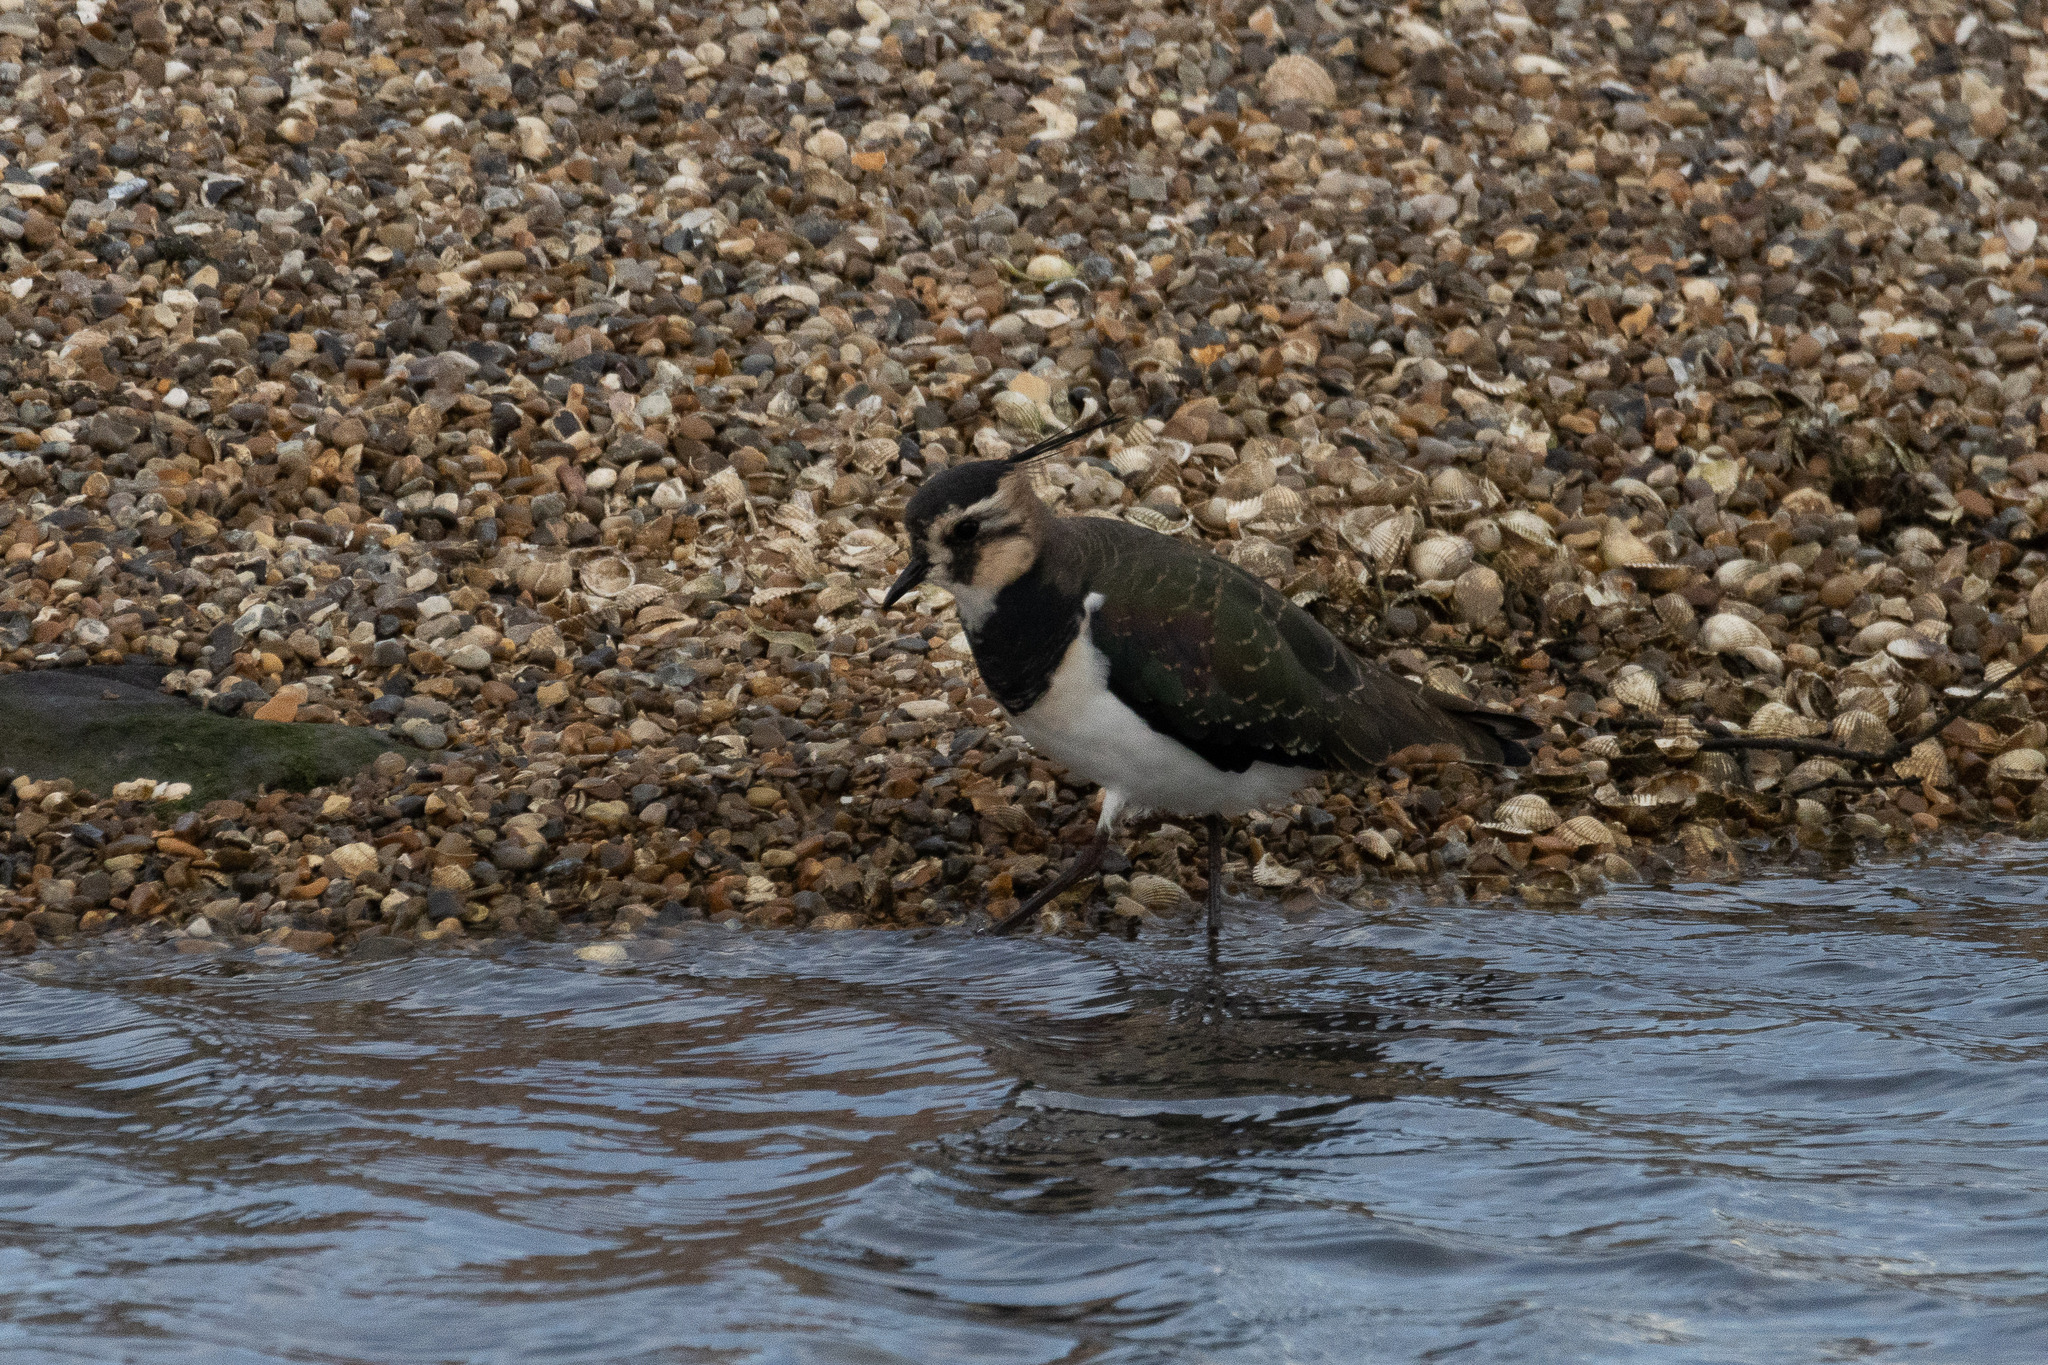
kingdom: Animalia
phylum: Chordata
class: Aves
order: Charadriiformes
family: Charadriidae
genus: Vanellus
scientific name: Vanellus vanellus
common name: Northern lapwing
